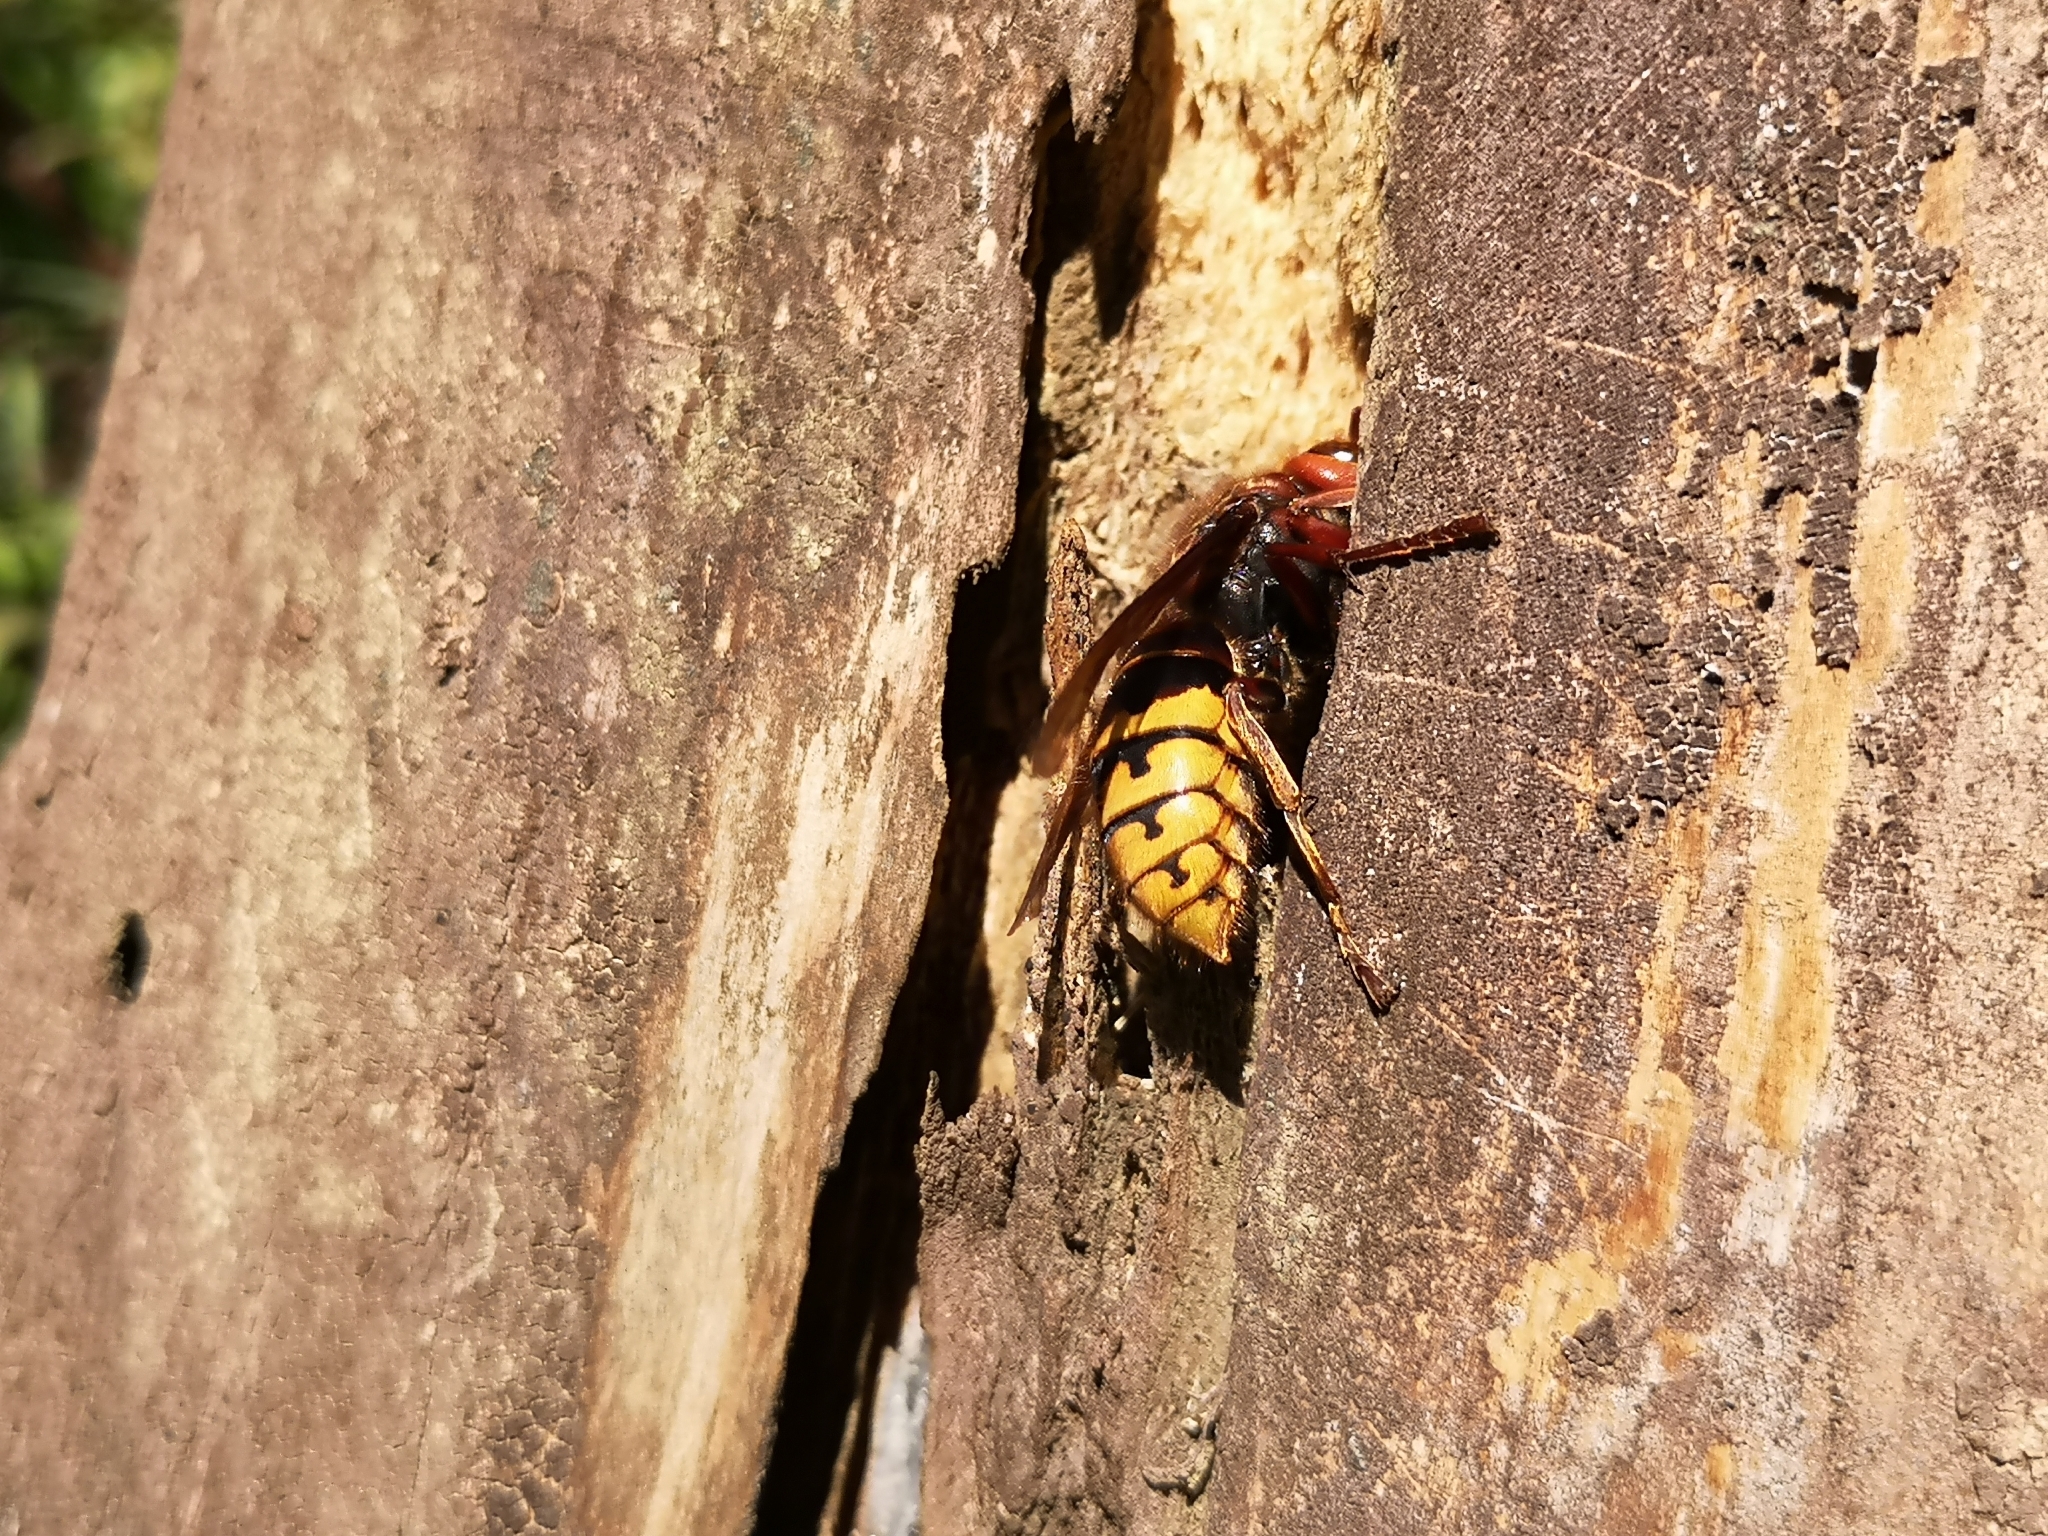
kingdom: Animalia
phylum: Arthropoda
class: Insecta
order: Hymenoptera
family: Vespidae
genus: Vespa
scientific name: Vespa crabro
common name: Hornet
